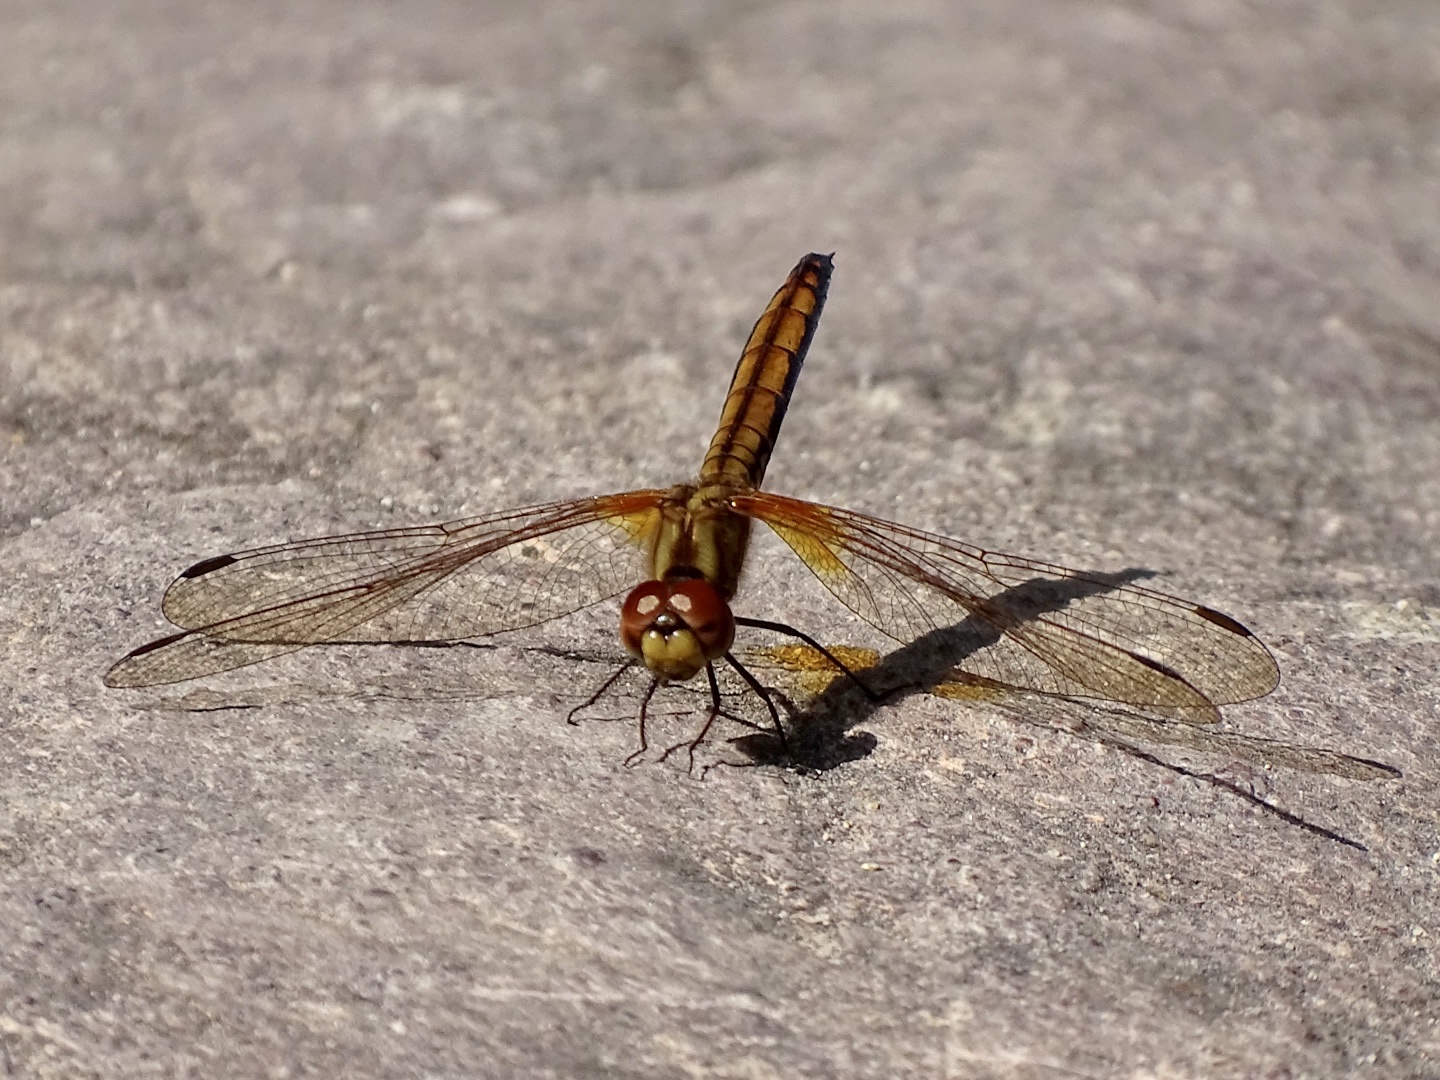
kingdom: Animalia
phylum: Arthropoda
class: Insecta
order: Odonata
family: Libellulidae
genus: Trithemis
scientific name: Trithemis aurora
